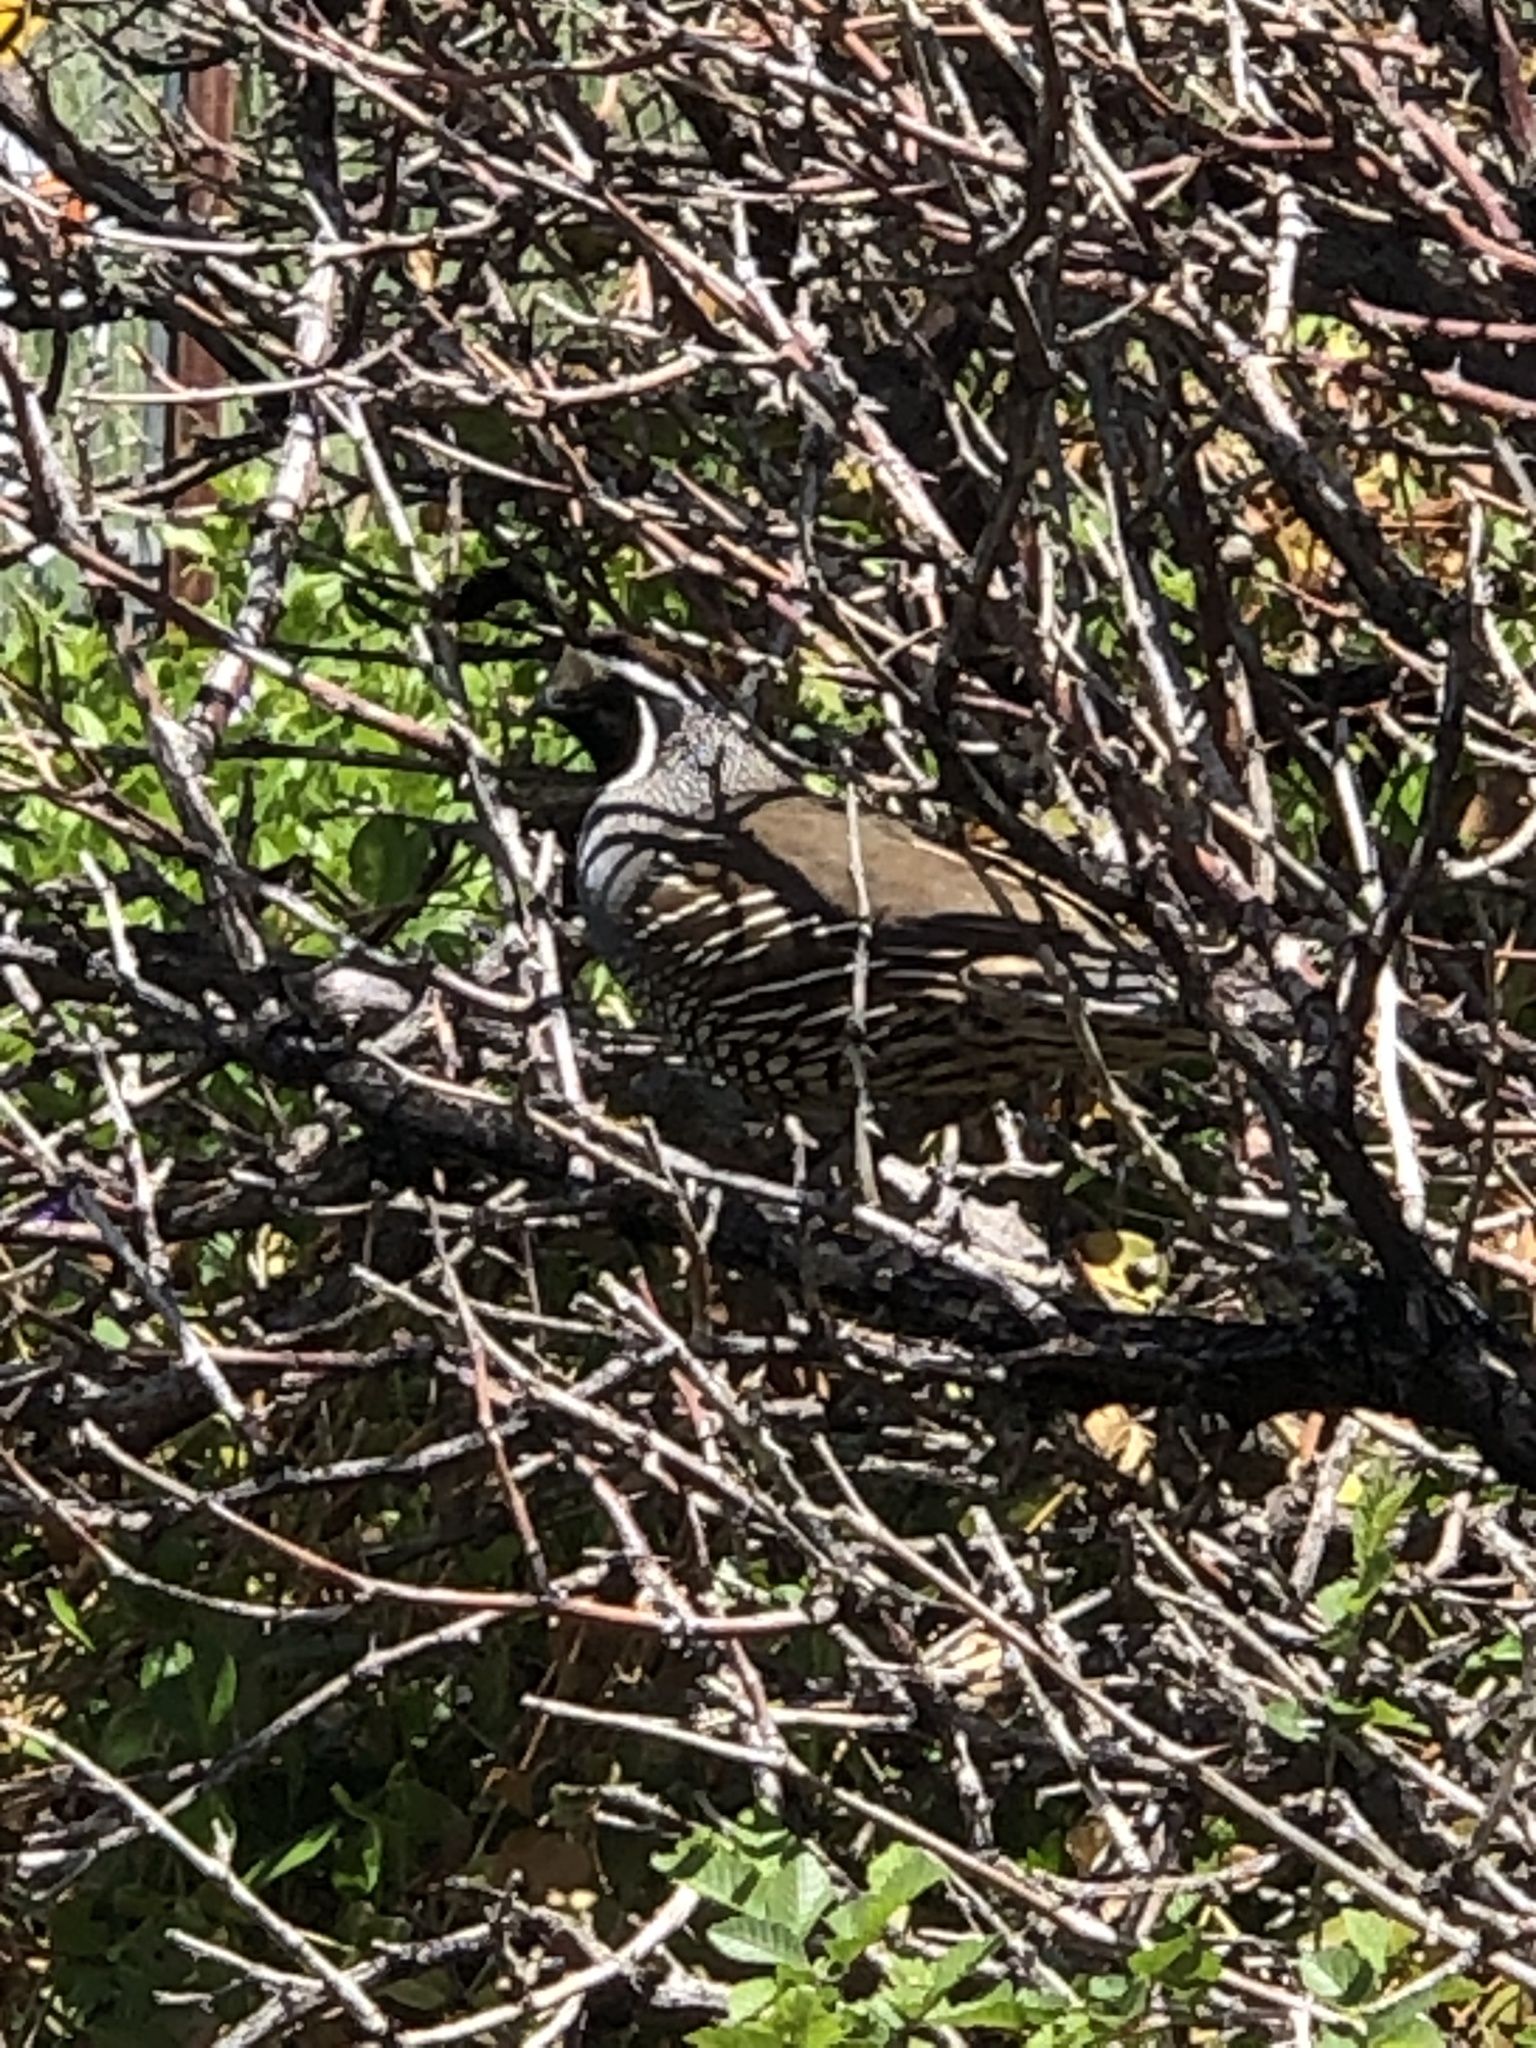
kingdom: Animalia
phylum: Chordata
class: Aves
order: Galliformes
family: Odontophoridae
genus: Callipepla
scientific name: Callipepla californica
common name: California quail
